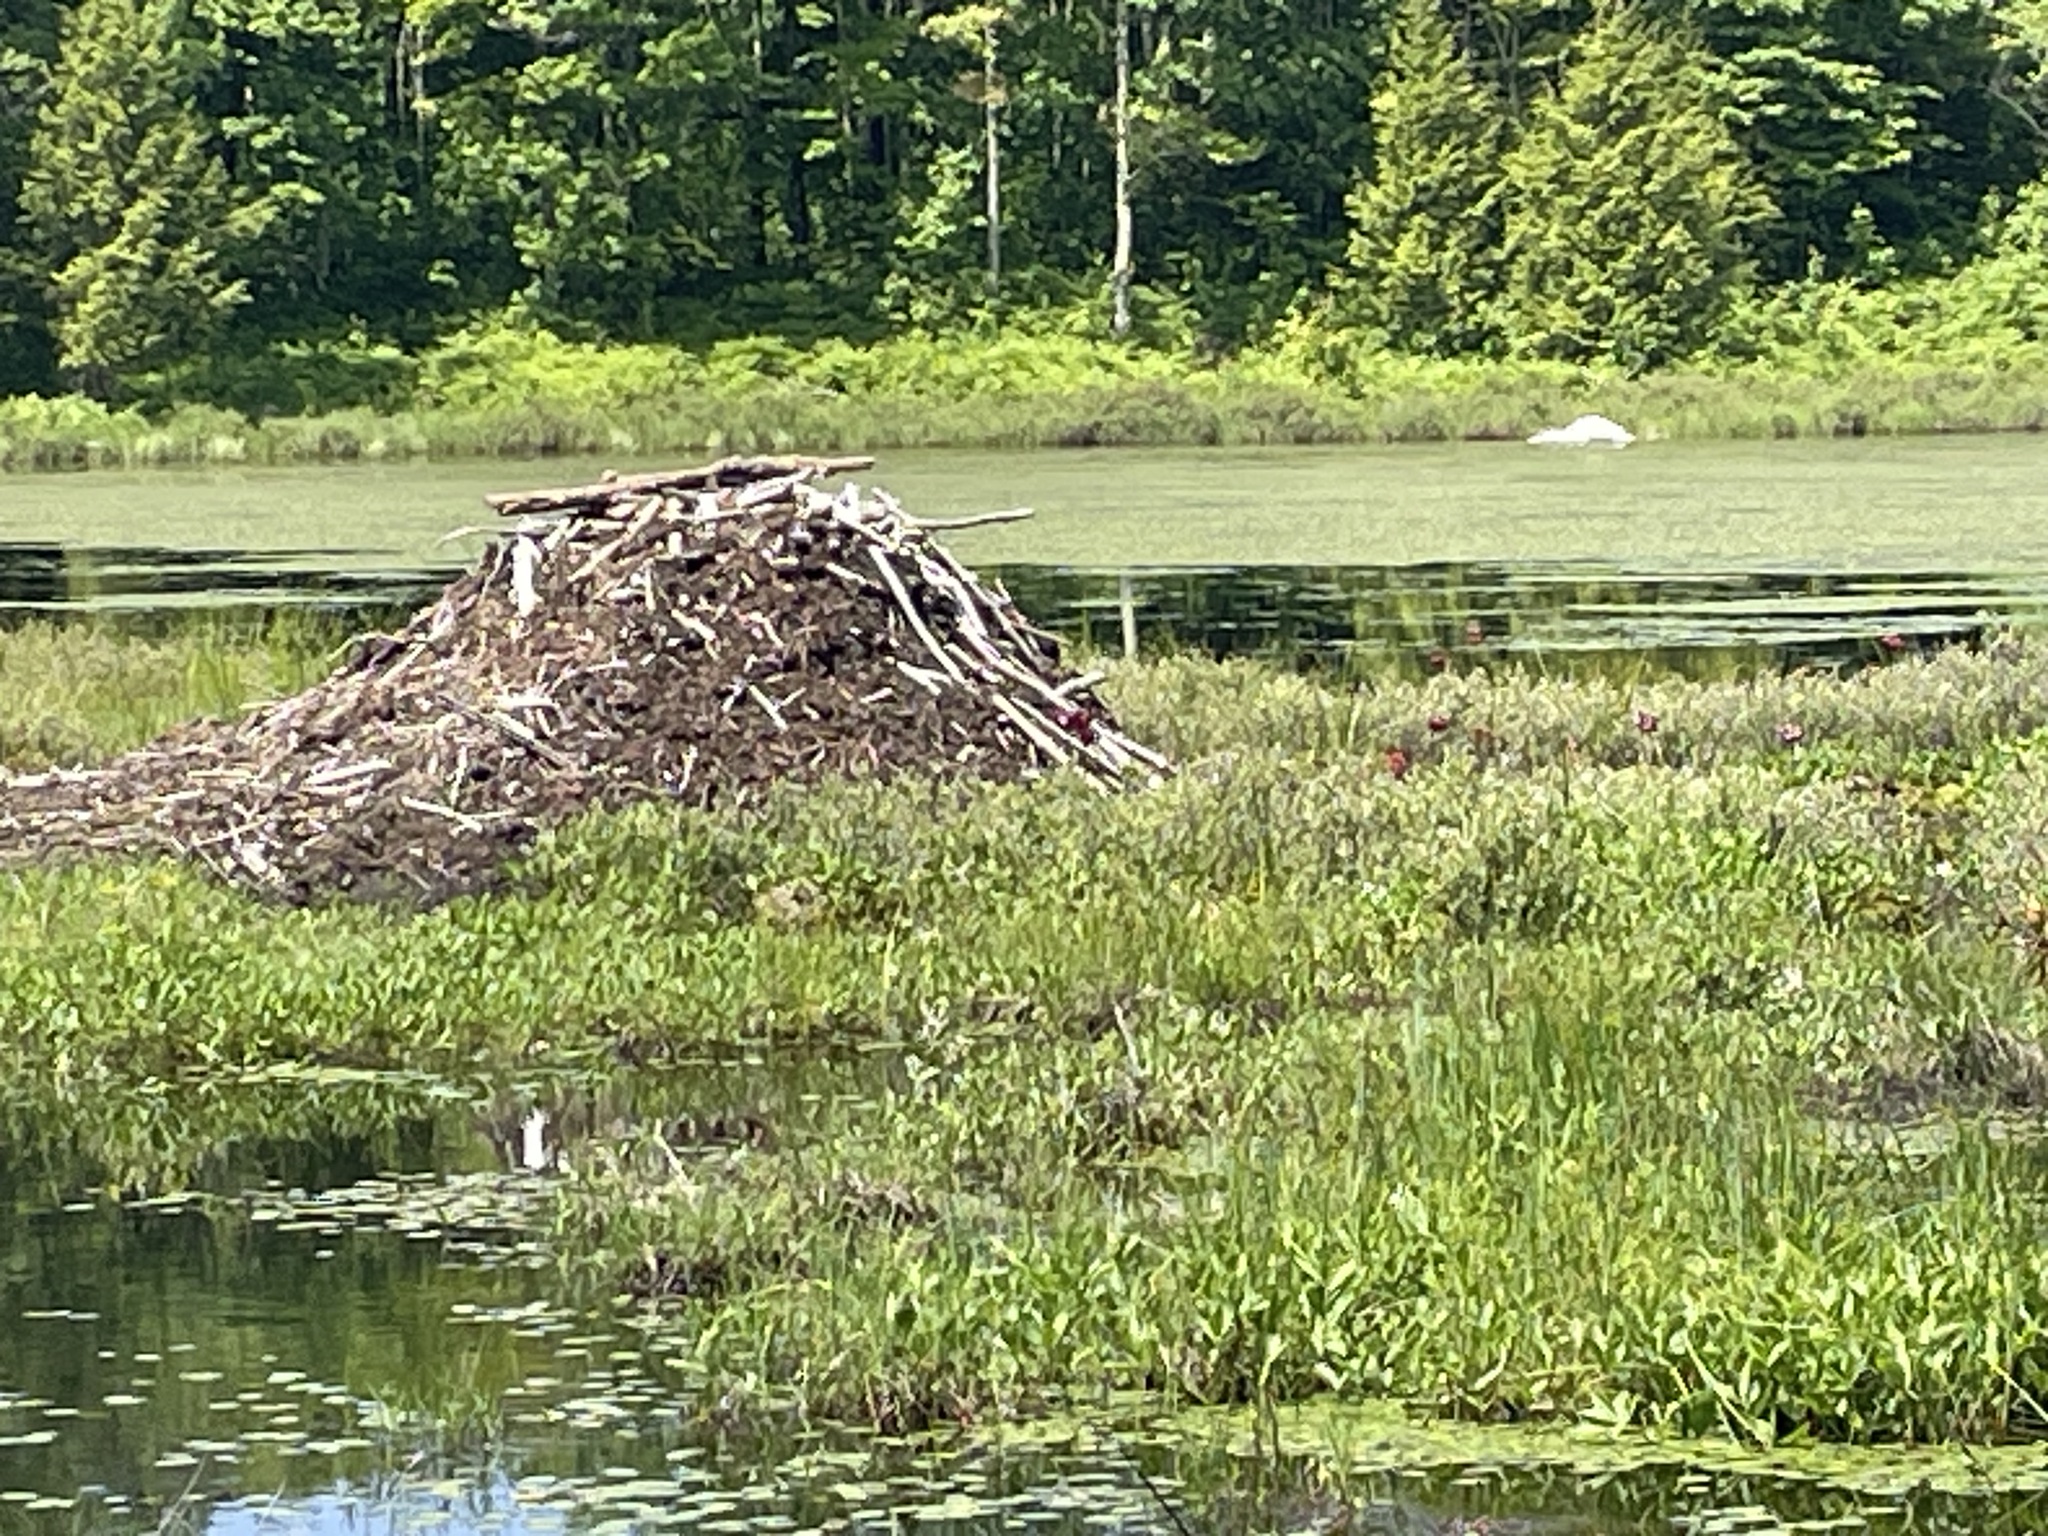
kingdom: Animalia
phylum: Chordata
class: Mammalia
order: Rodentia
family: Castoridae
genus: Castor
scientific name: Castor canadensis
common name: American beaver
